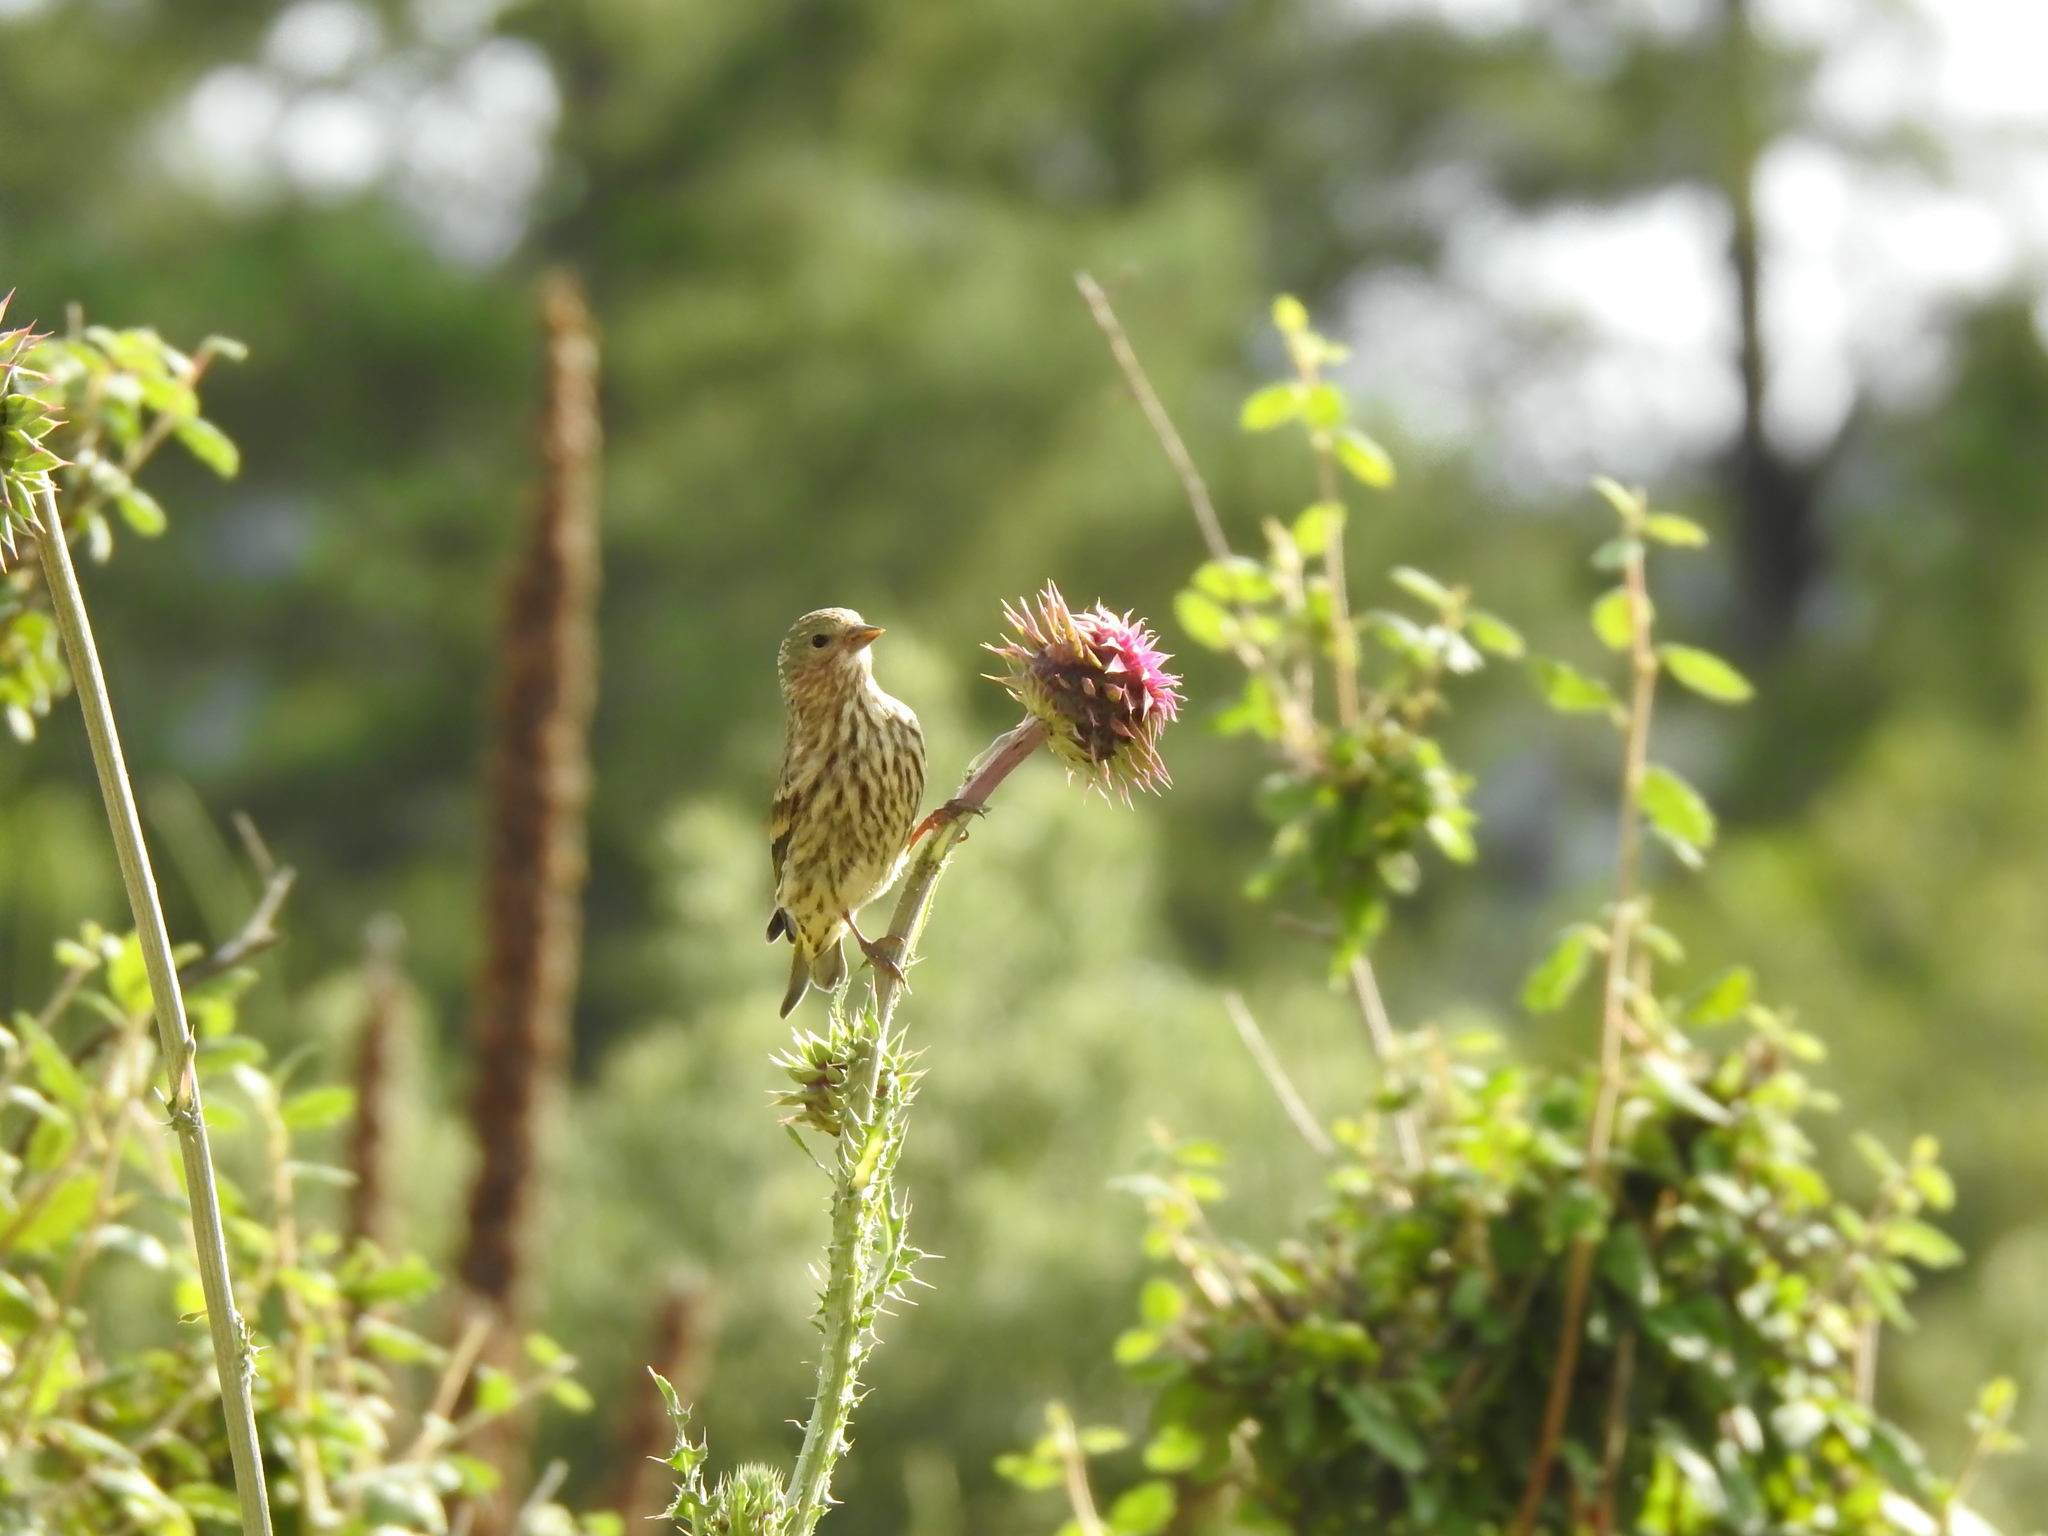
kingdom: Animalia
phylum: Chordata
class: Aves
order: Passeriformes
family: Fringillidae
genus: Spinus
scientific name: Spinus pinus
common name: Pine siskin
